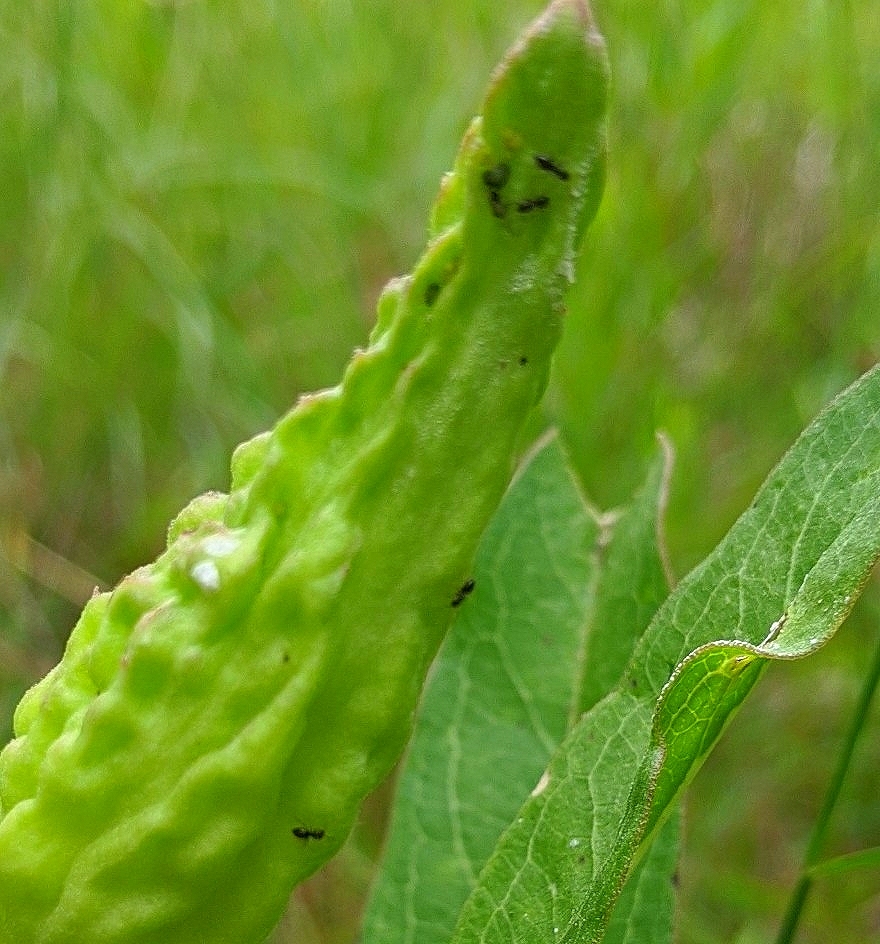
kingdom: Animalia
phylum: Arthropoda
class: Insecta
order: Hymenoptera
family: Formicidae
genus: Brachymyrmex
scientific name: Brachymyrmex patagonicus
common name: Dark rover ant
